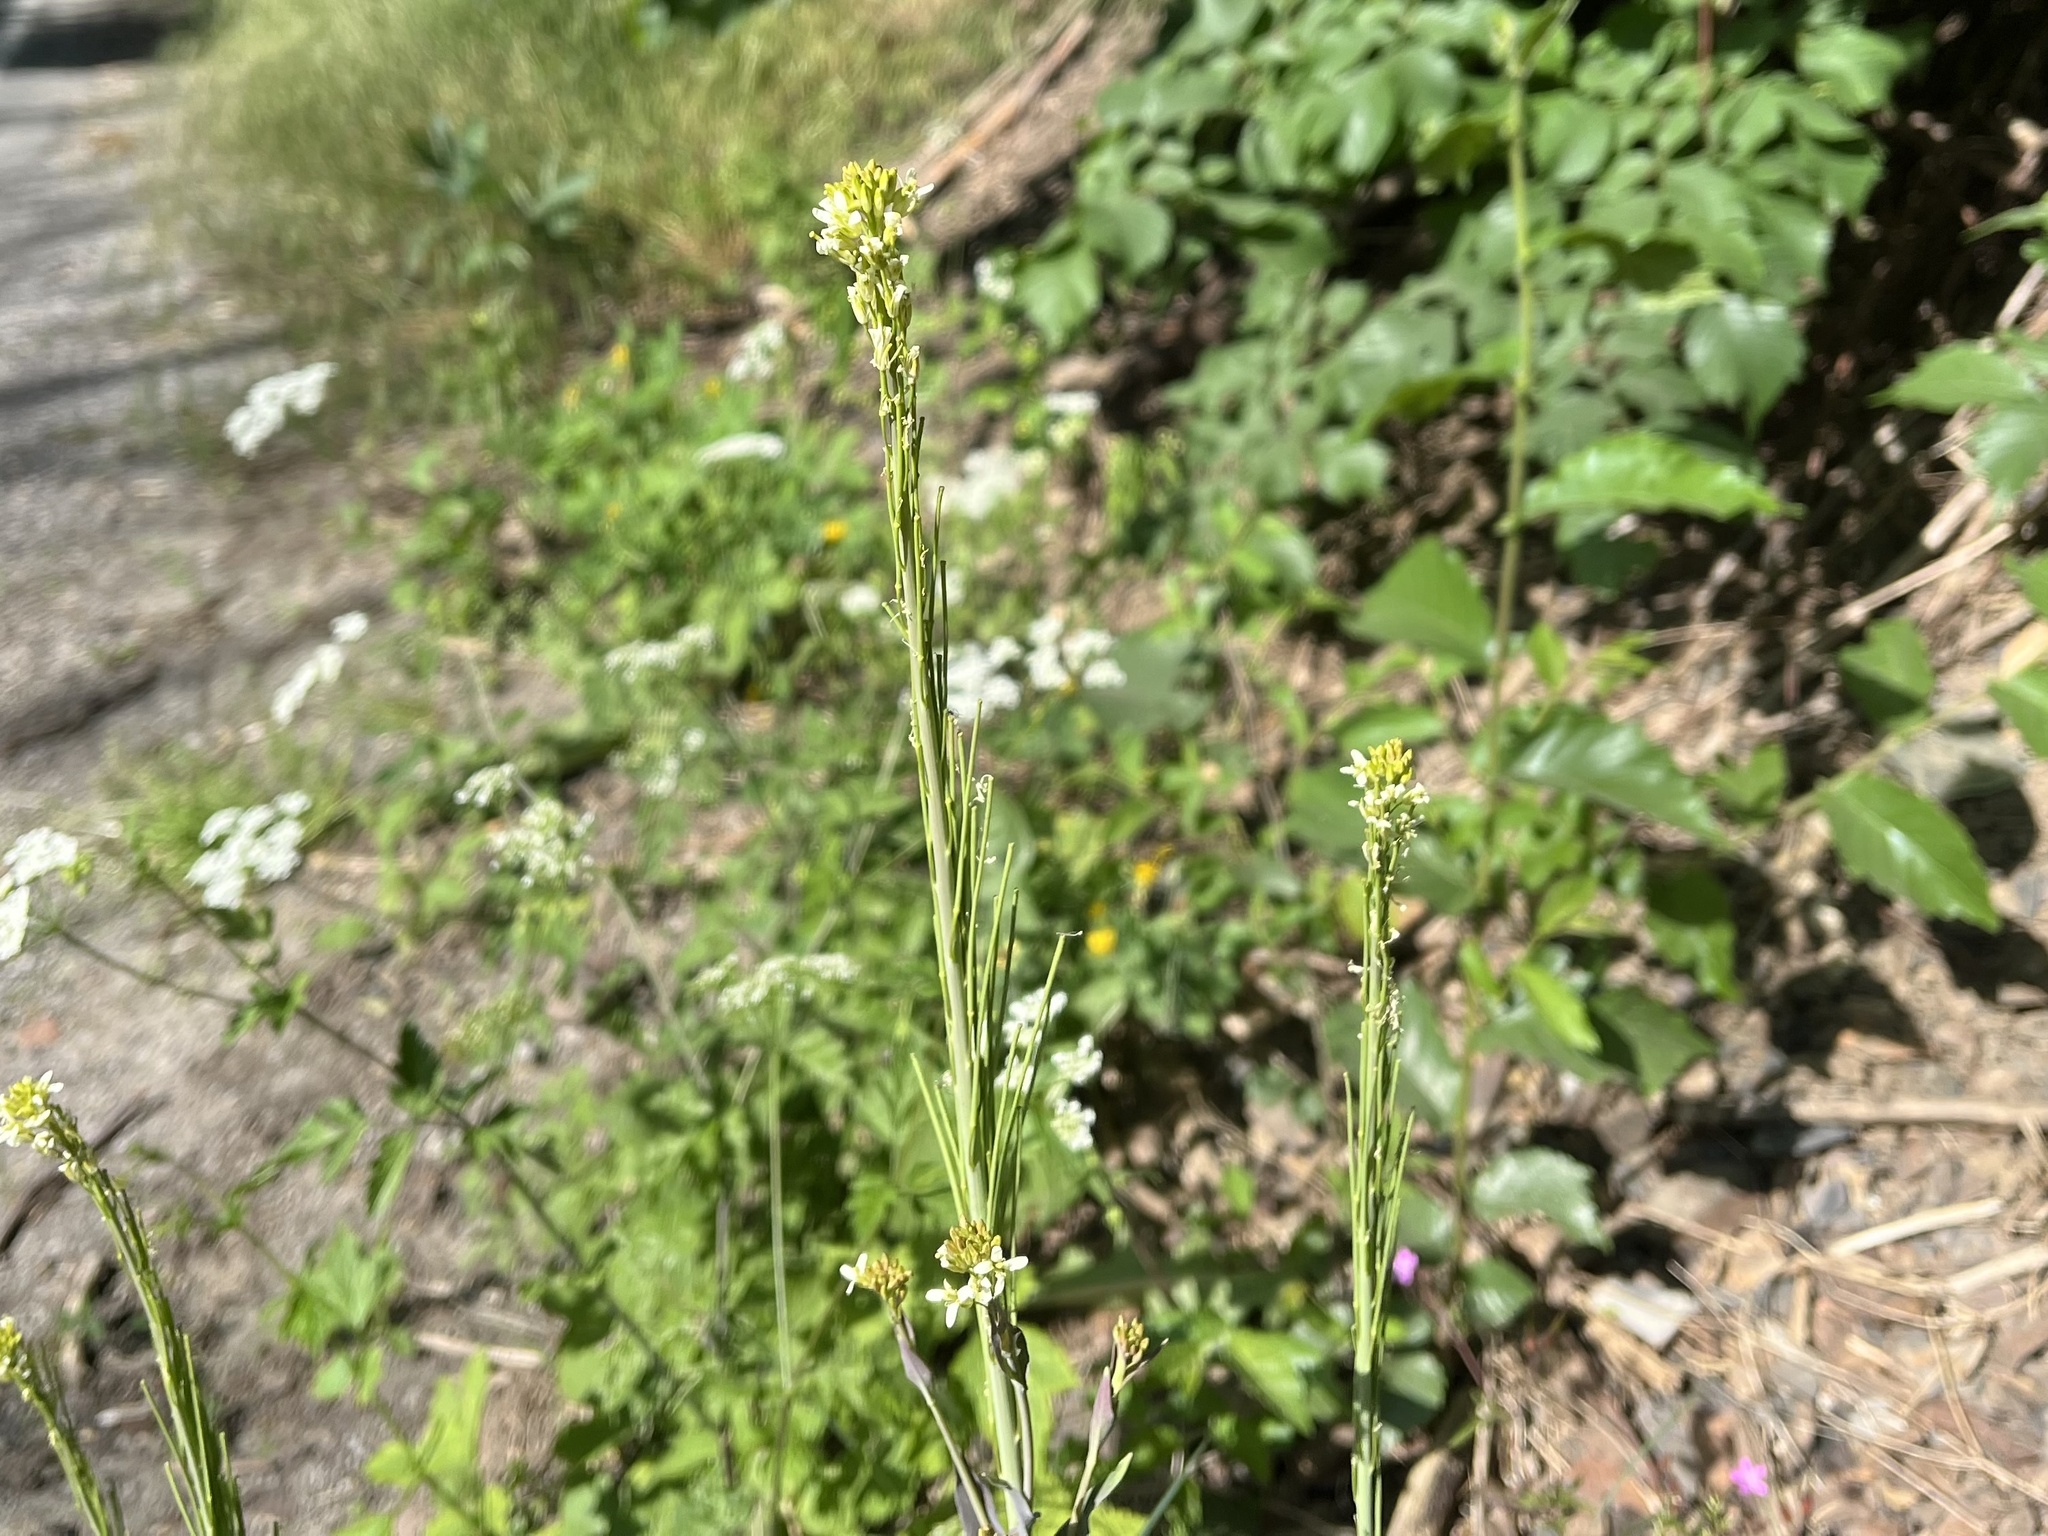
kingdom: Plantae
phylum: Tracheophyta
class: Magnoliopsida
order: Brassicales
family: Brassicaceae
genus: Turritis
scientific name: Turritis glabra
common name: Tower rockcress
